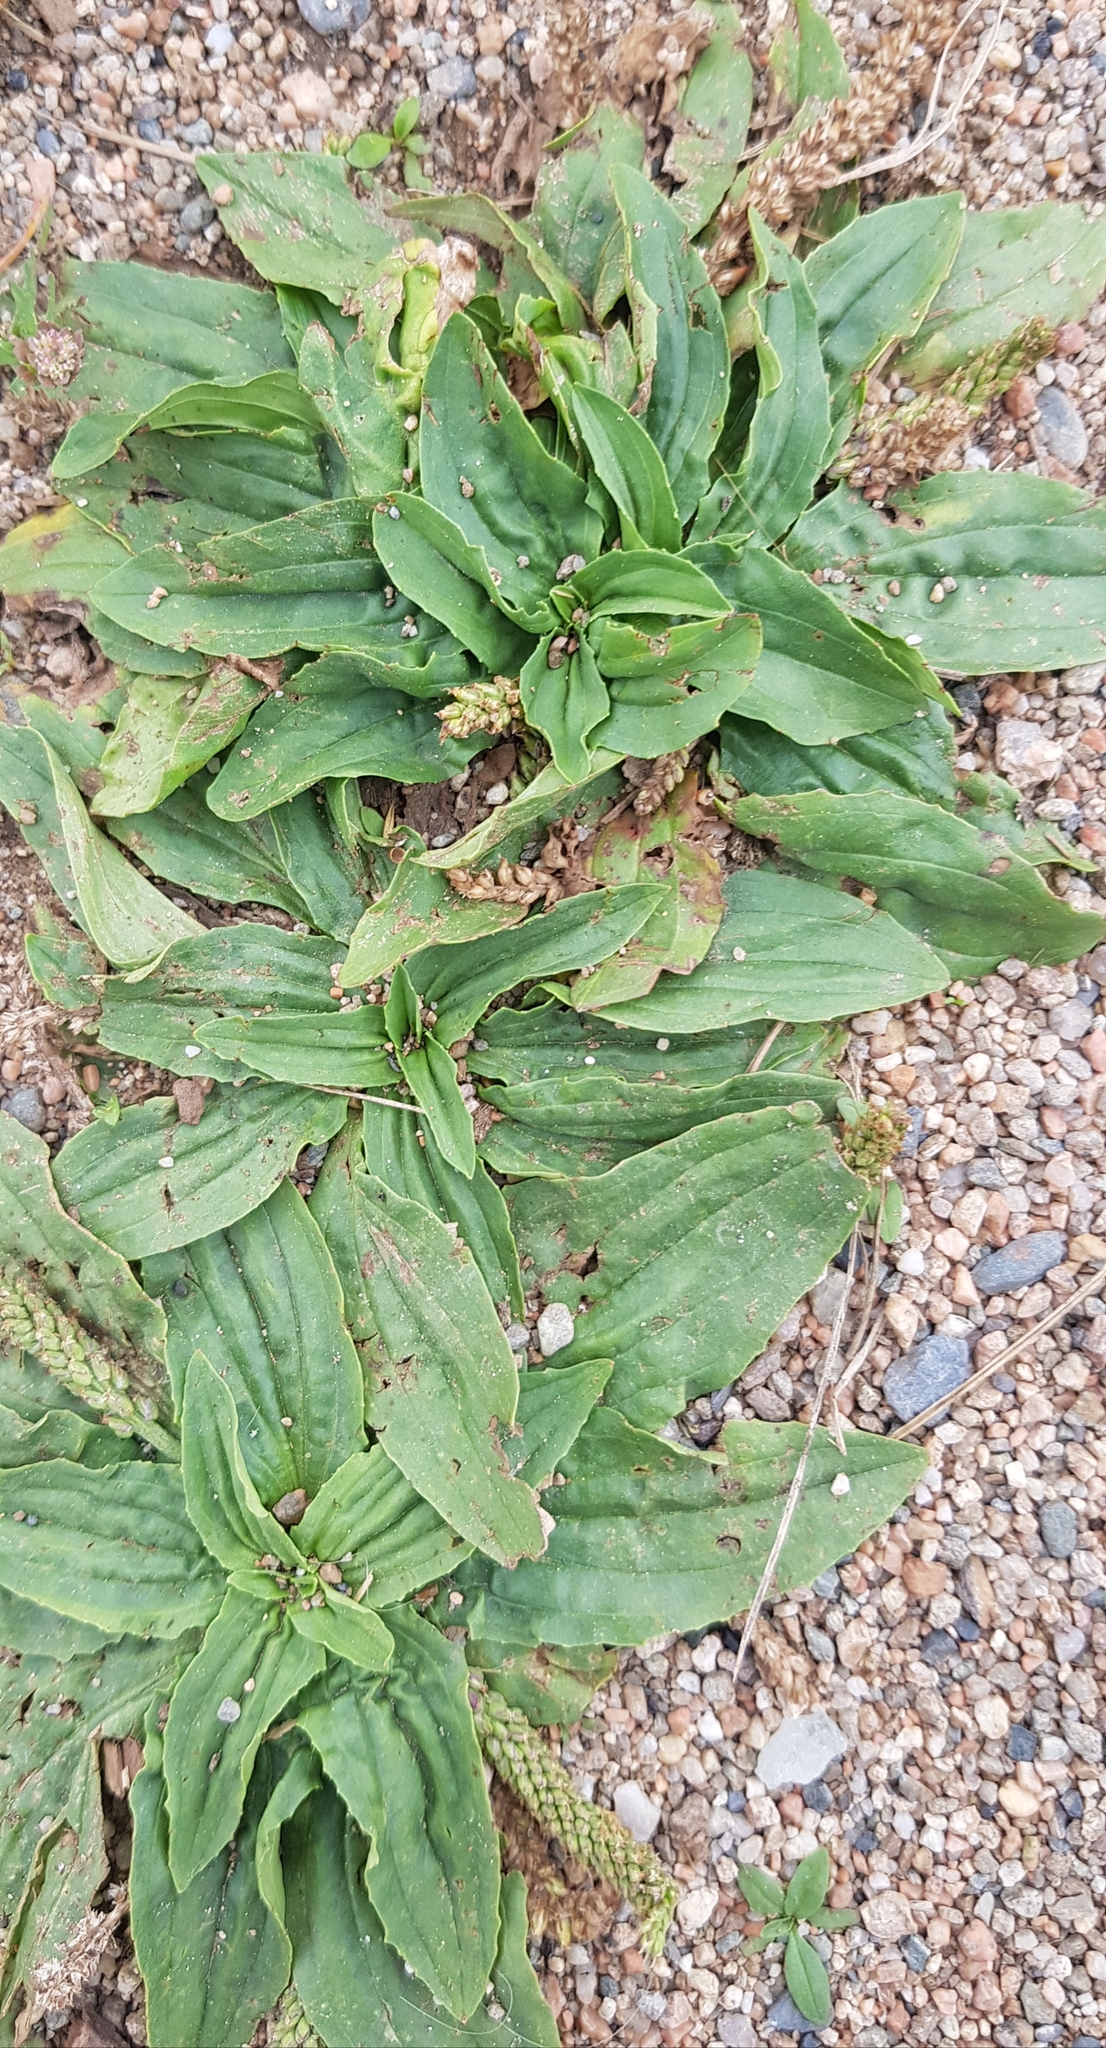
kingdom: Plantae
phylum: Tracheophyta
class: Magnoliopsida
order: Lamiales
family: Plantaginaceae
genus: Plantago
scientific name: Plantago depressa
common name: Depressed plantain
